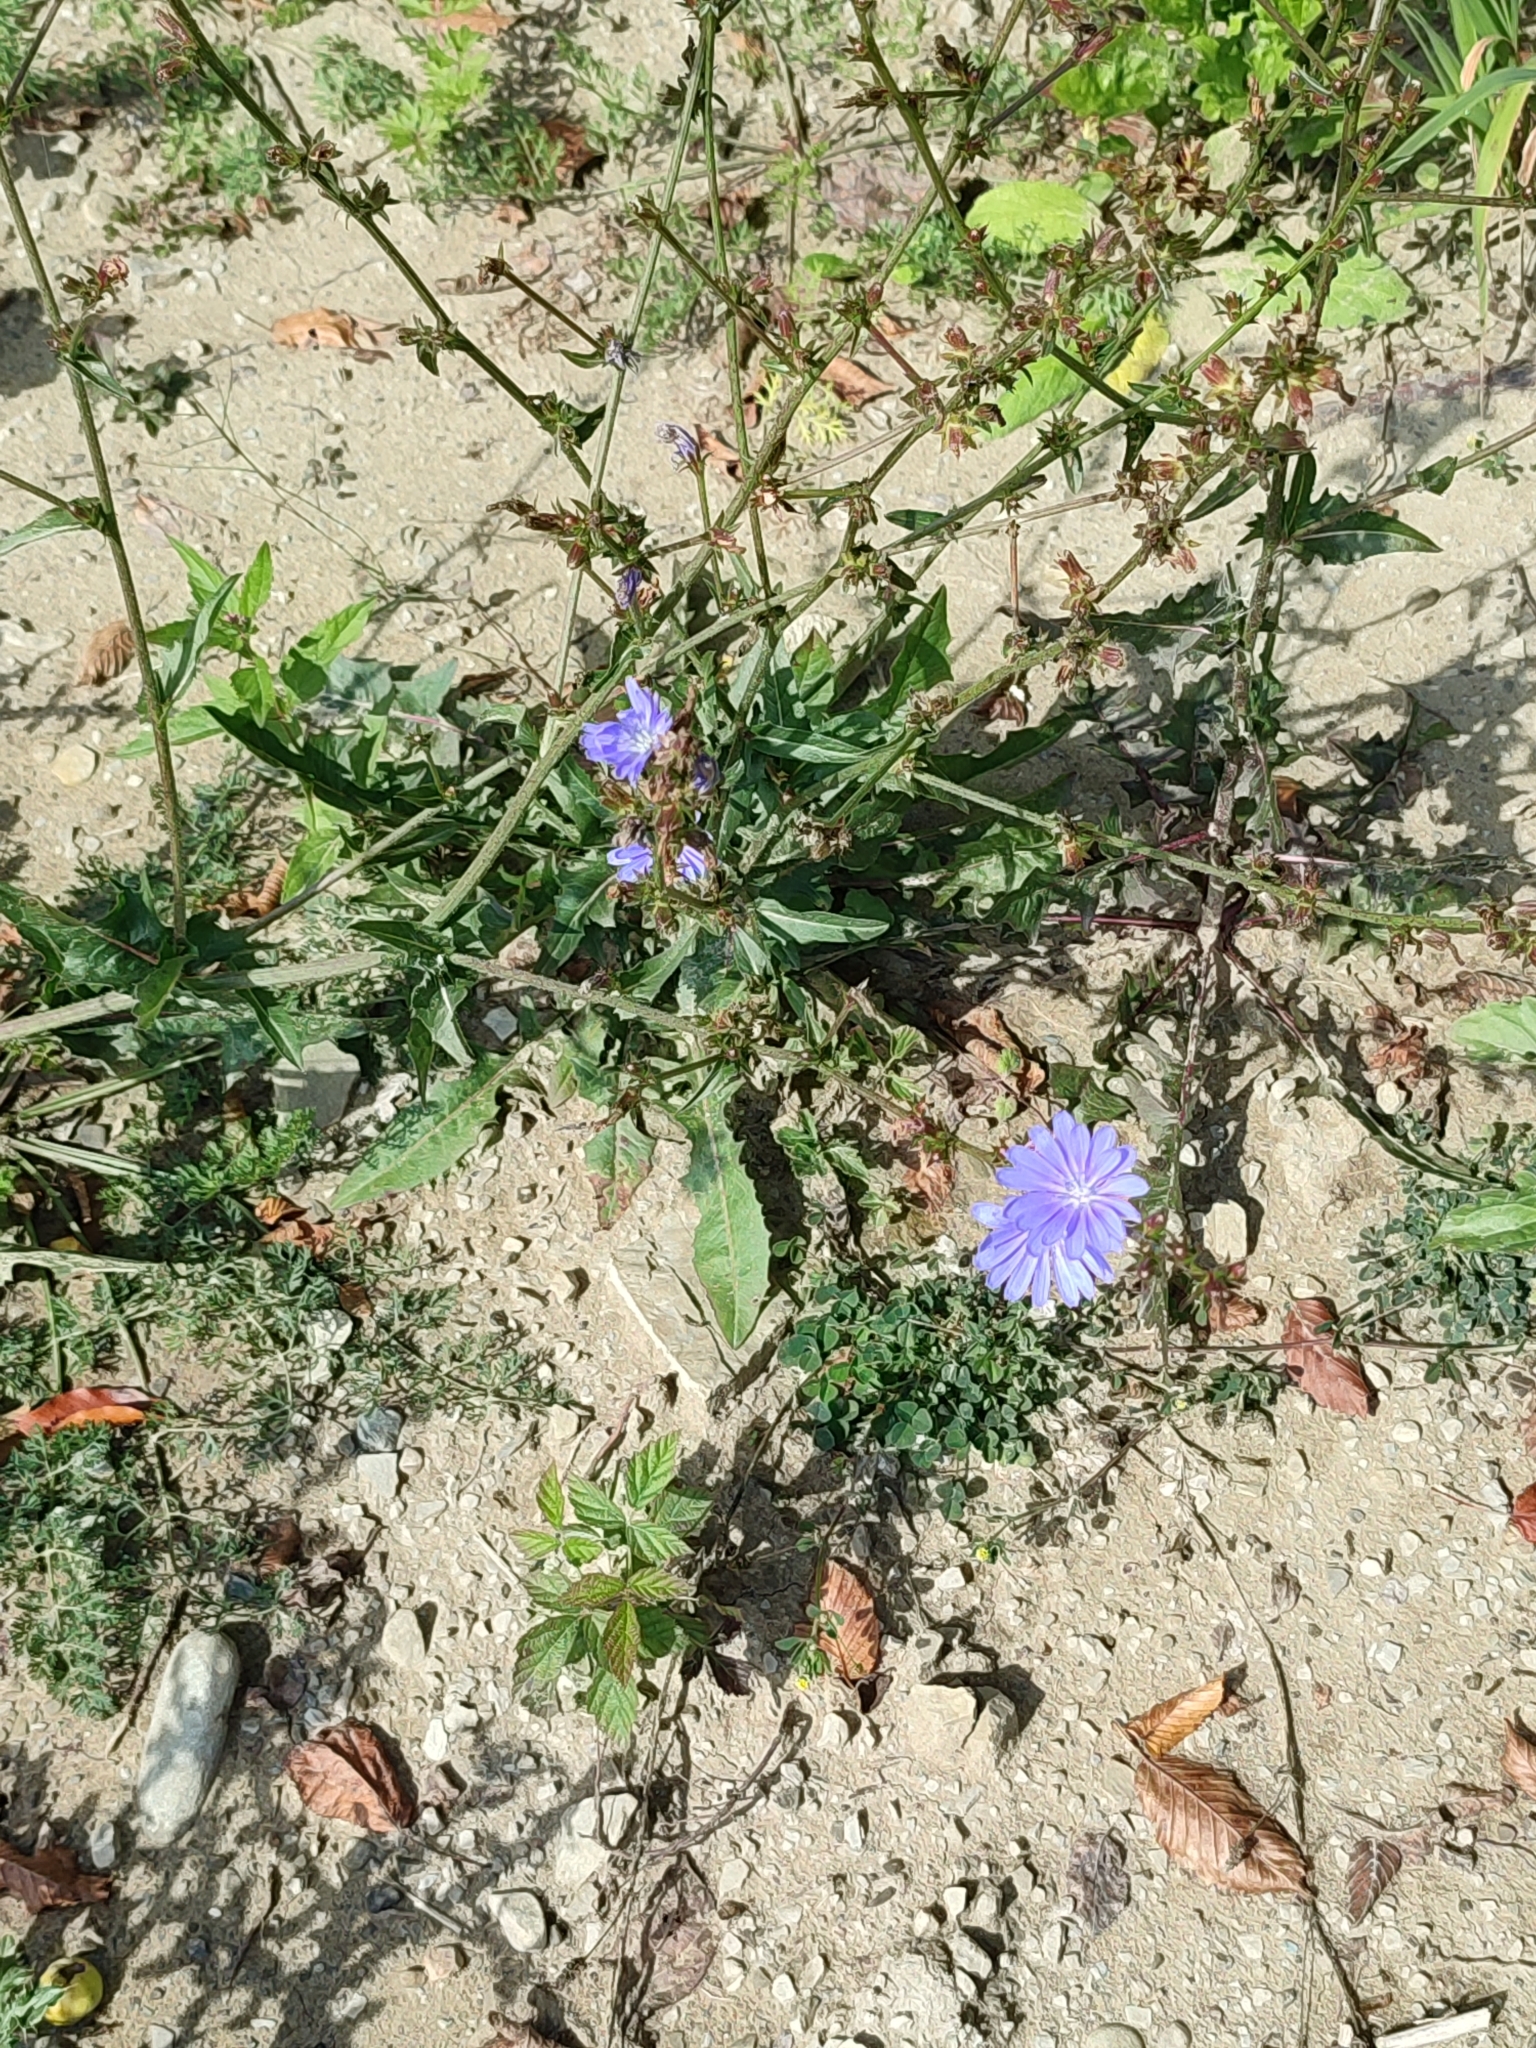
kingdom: Plantae
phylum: Tracheophyta
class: Magnoliopsida
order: Asterales
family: Asteraceae
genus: Cichorium
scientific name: Cichorium intybus
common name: Chicory
